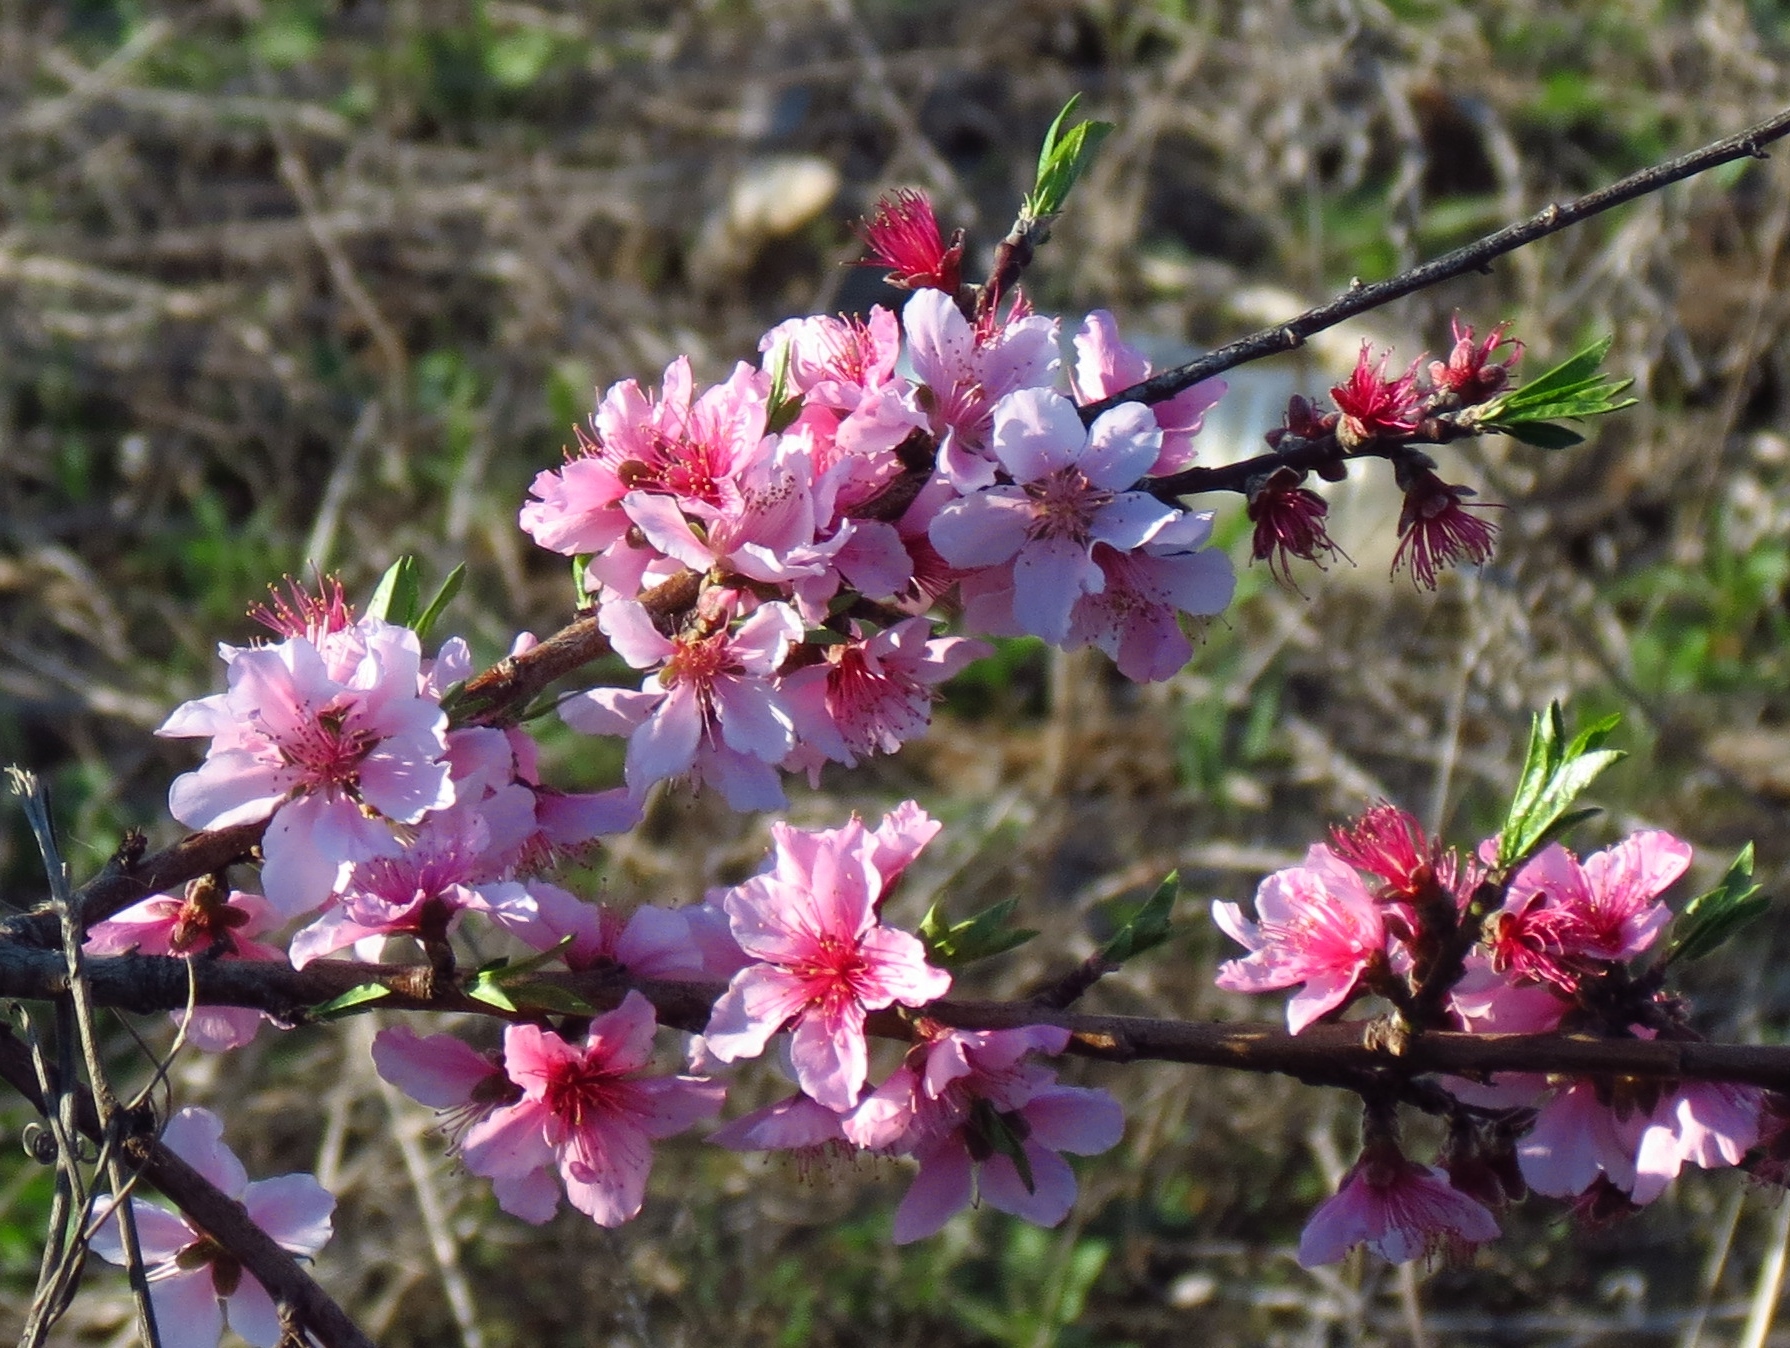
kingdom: Plantae
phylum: Tracheophyta
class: Magnoliopsida
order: Rosales
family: Rosaceae
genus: Prunus
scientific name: Prunus persica
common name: Peach
